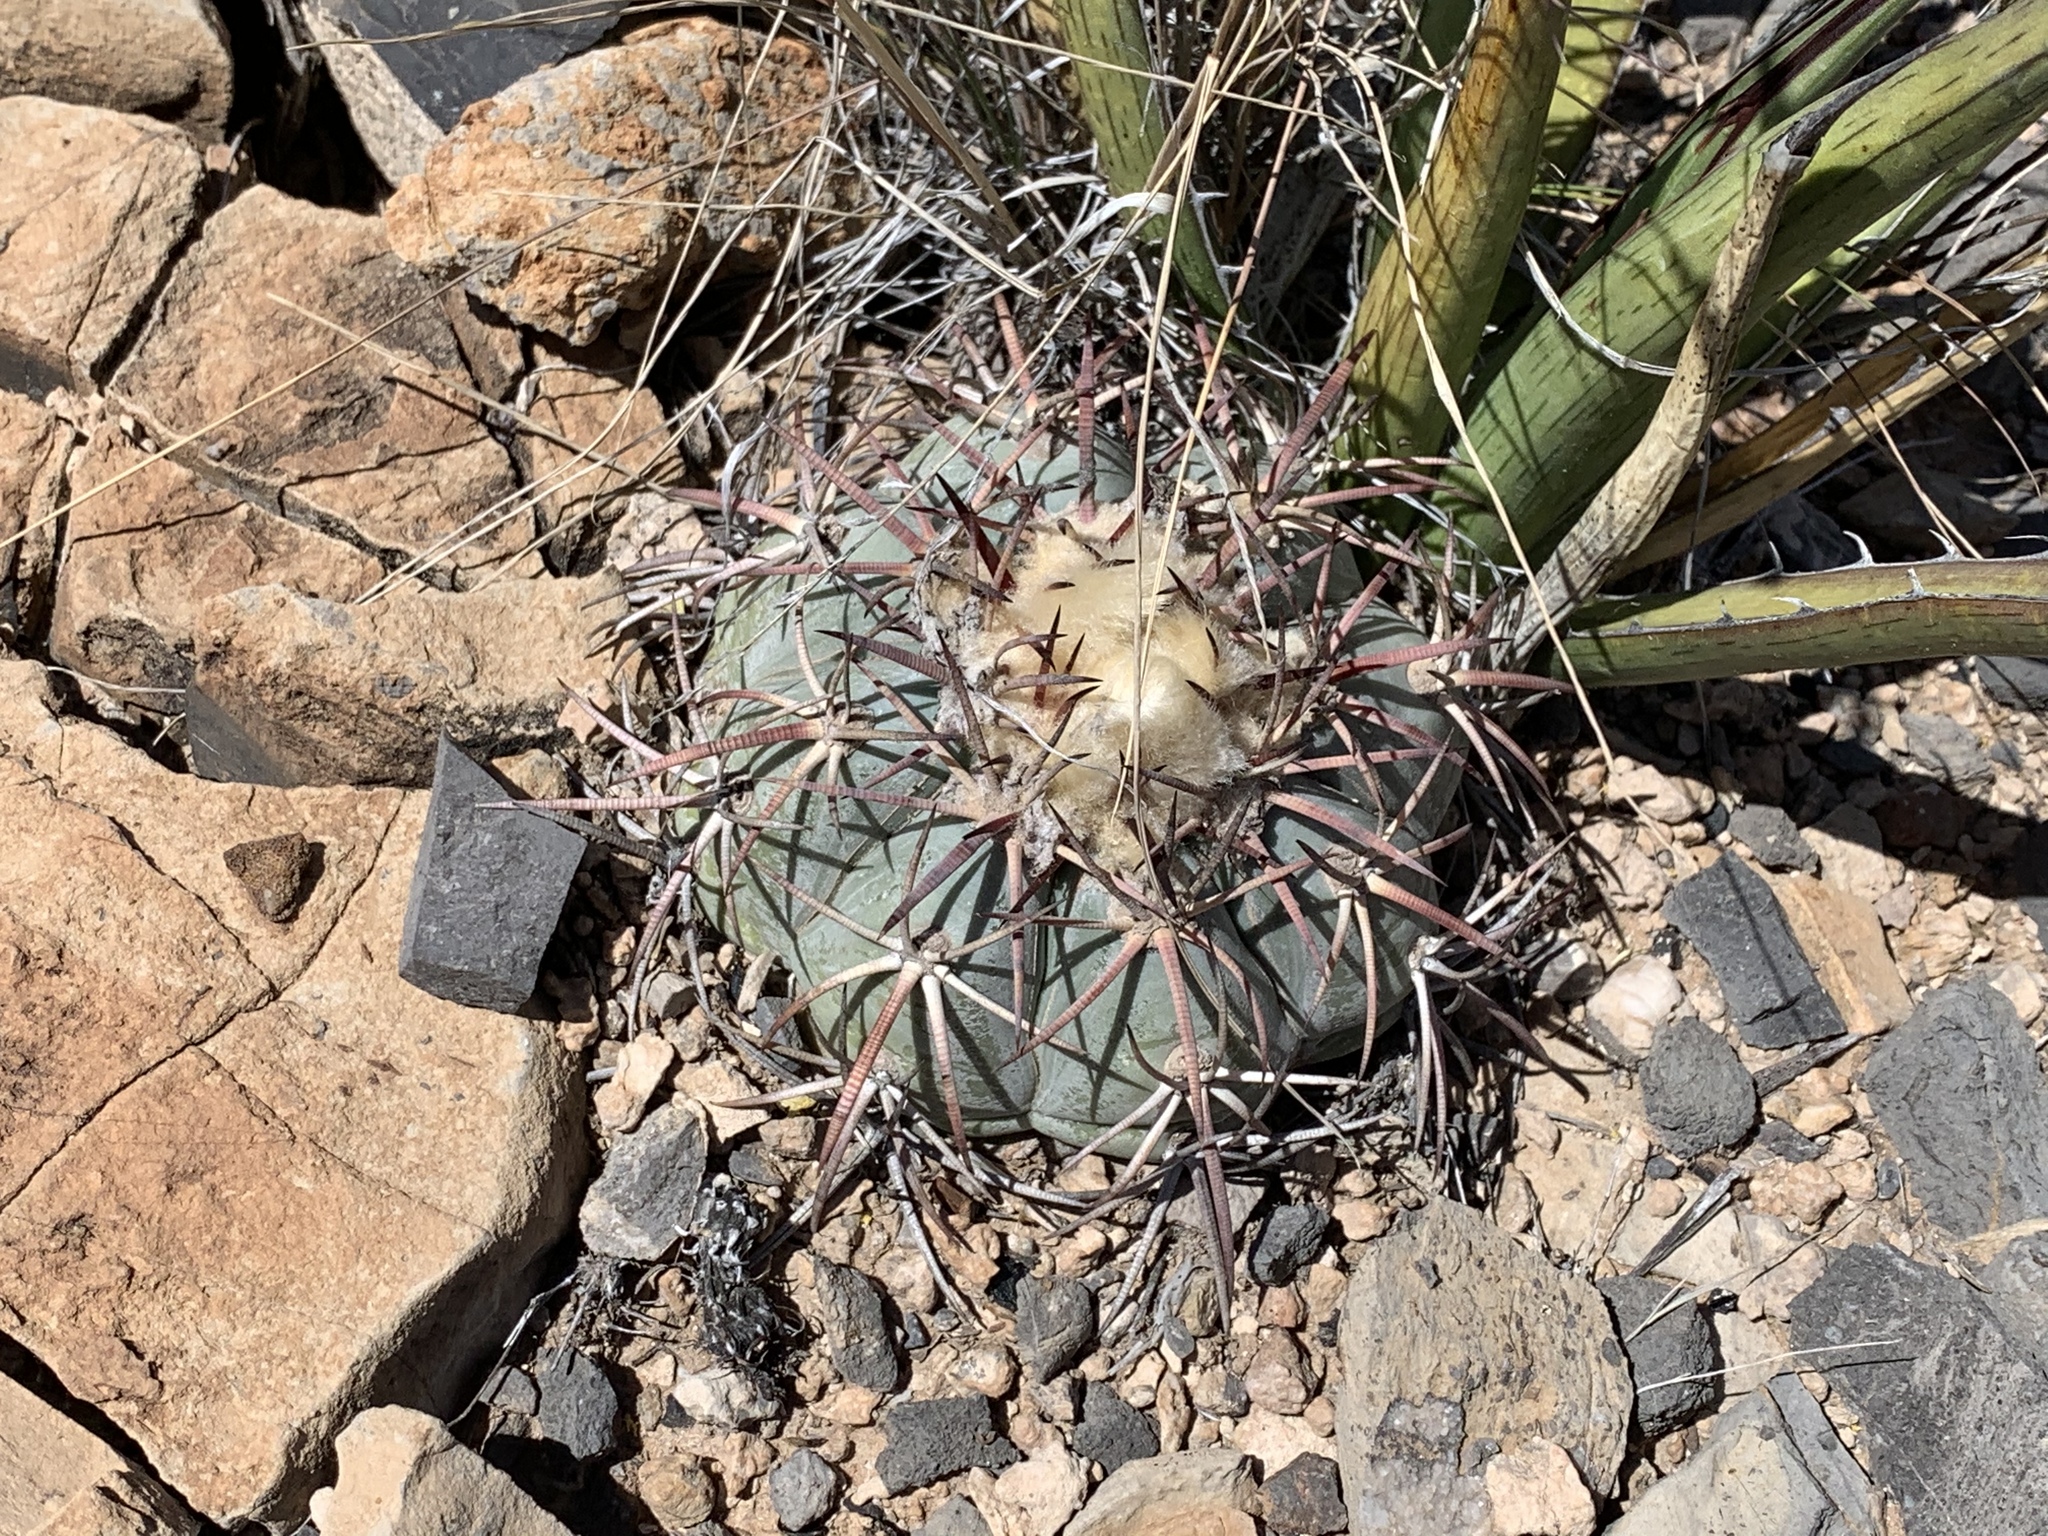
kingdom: Plantae
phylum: Tracheophyta
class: Magnoliopsida
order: Caryophyllales
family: Cactaceae
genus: Echinocactus
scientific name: Echinocactus horizonthalonius
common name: Devilshead
